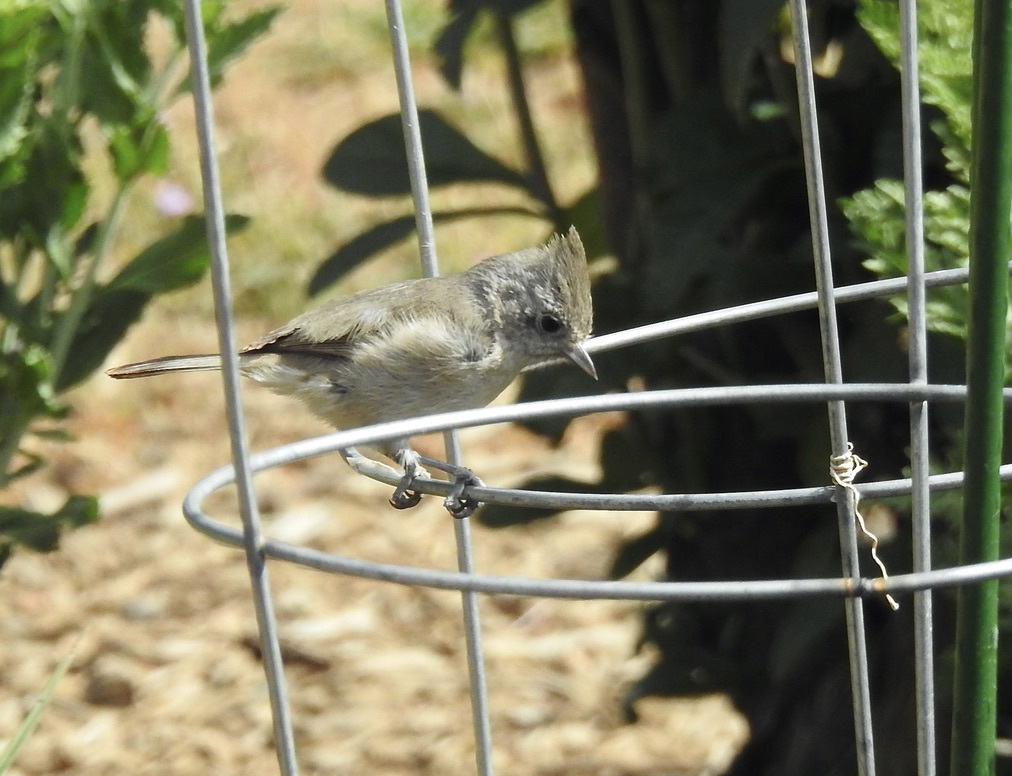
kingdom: Animalia
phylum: Chordata
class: Aves
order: Passeriformes
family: Paridae
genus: Baeolophus
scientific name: Baeolophus inornatus
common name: Oak titmouse
